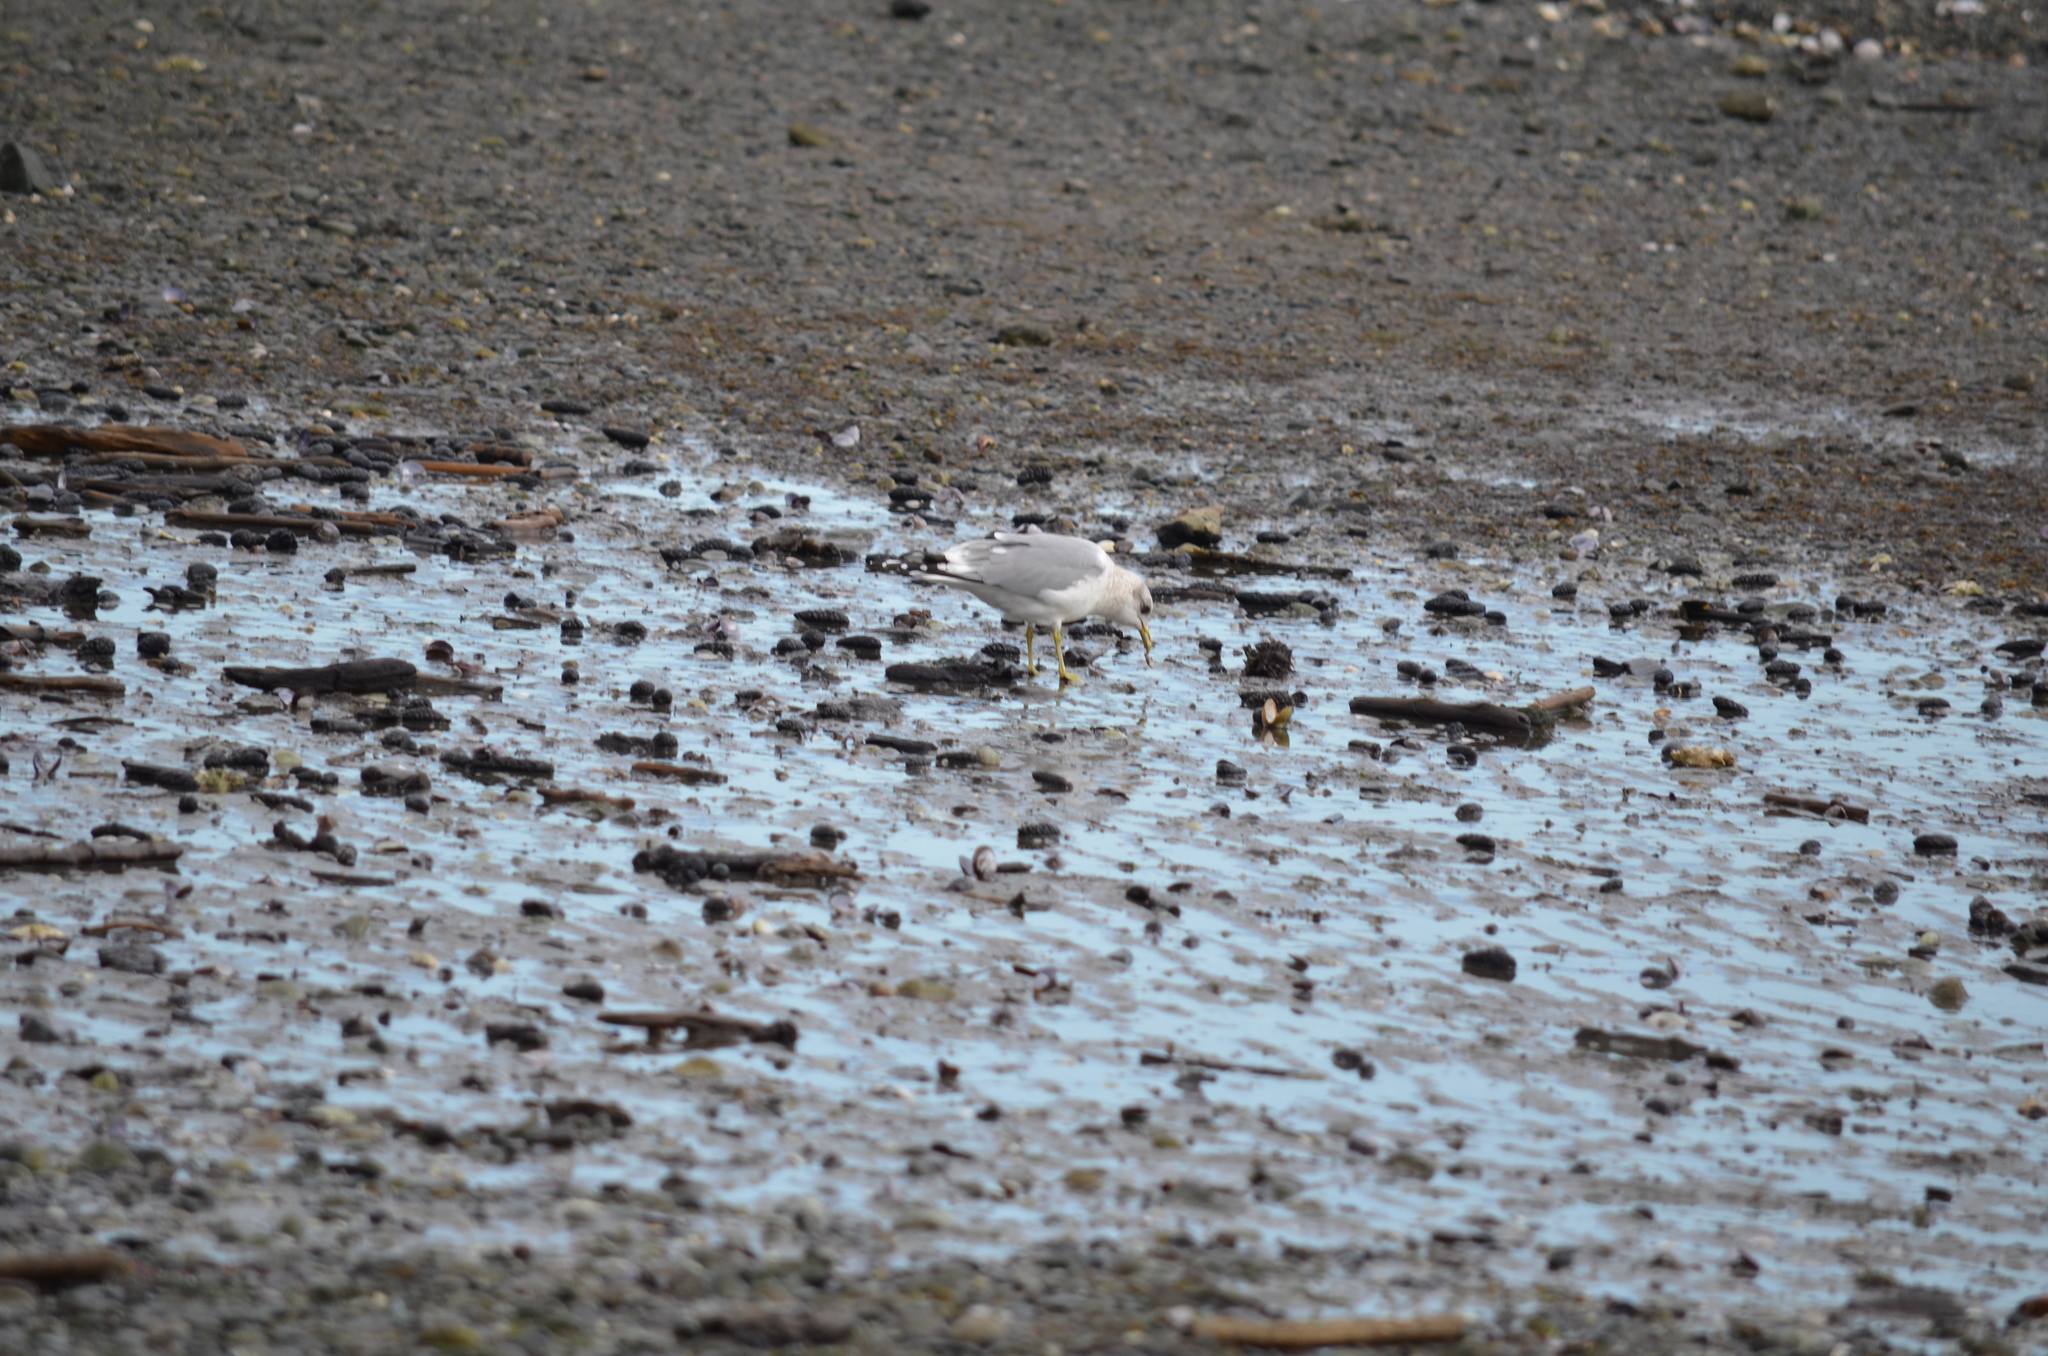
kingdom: Animalia
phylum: Chordata
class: Aves
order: Charadriiformes
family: Laridae
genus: Larus
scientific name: Larus brachyrhynchus
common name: Short-billed gull
